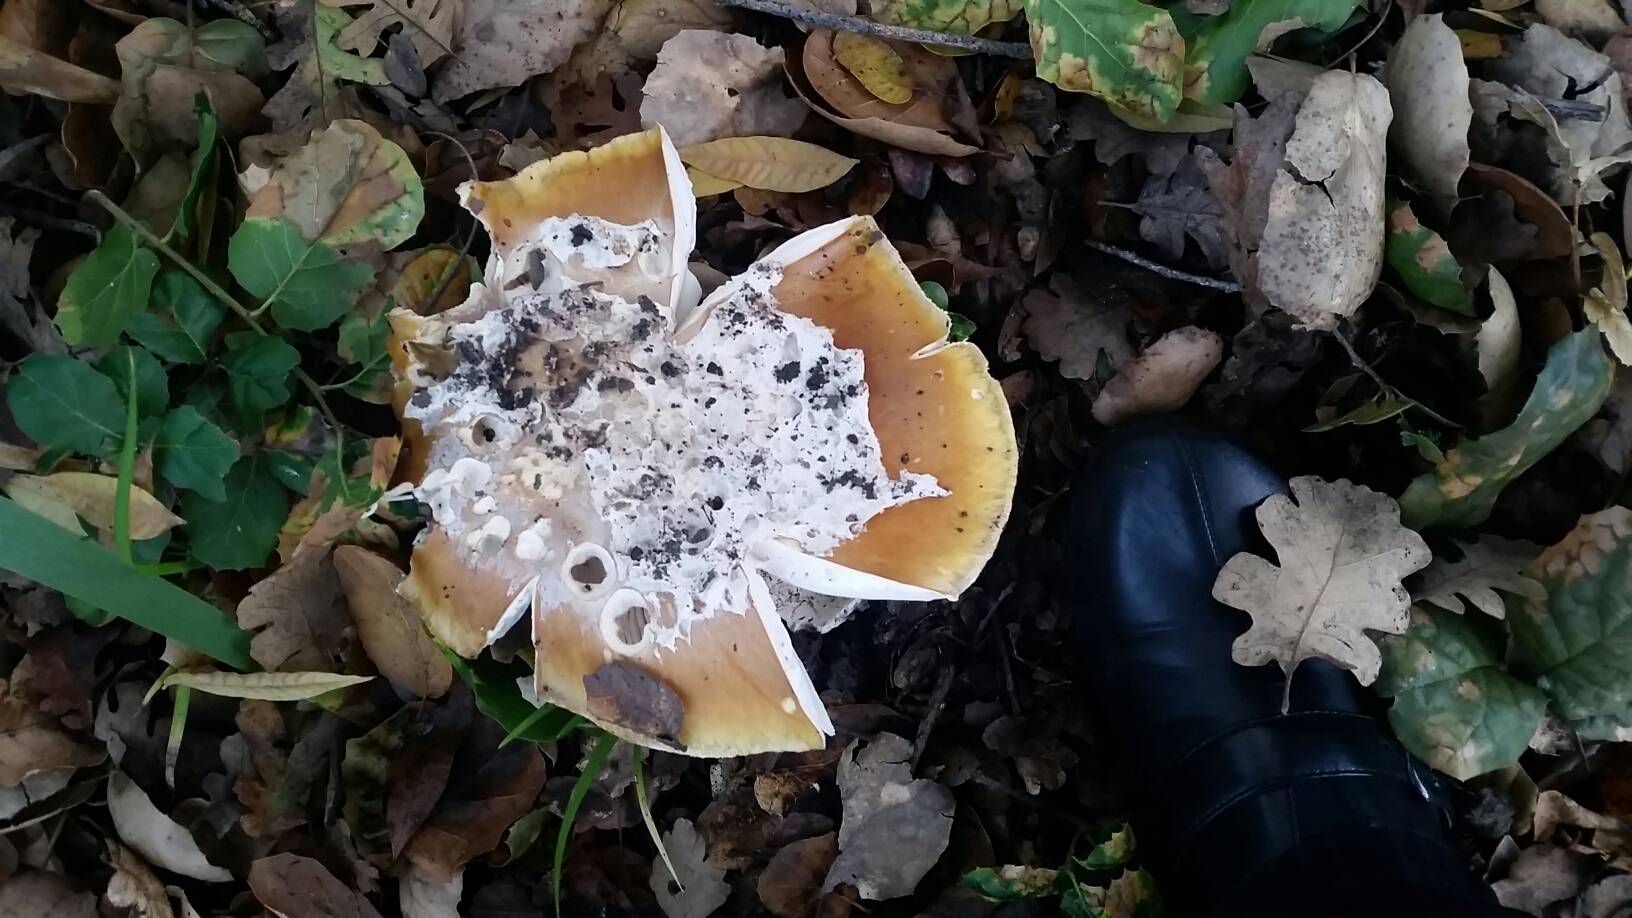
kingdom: Fungi
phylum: Basidiomycota
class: Agaricomycetes
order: Agaricales
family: Amanitaceae
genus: Amanita
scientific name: Amanita calyptroderma
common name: Coccora
